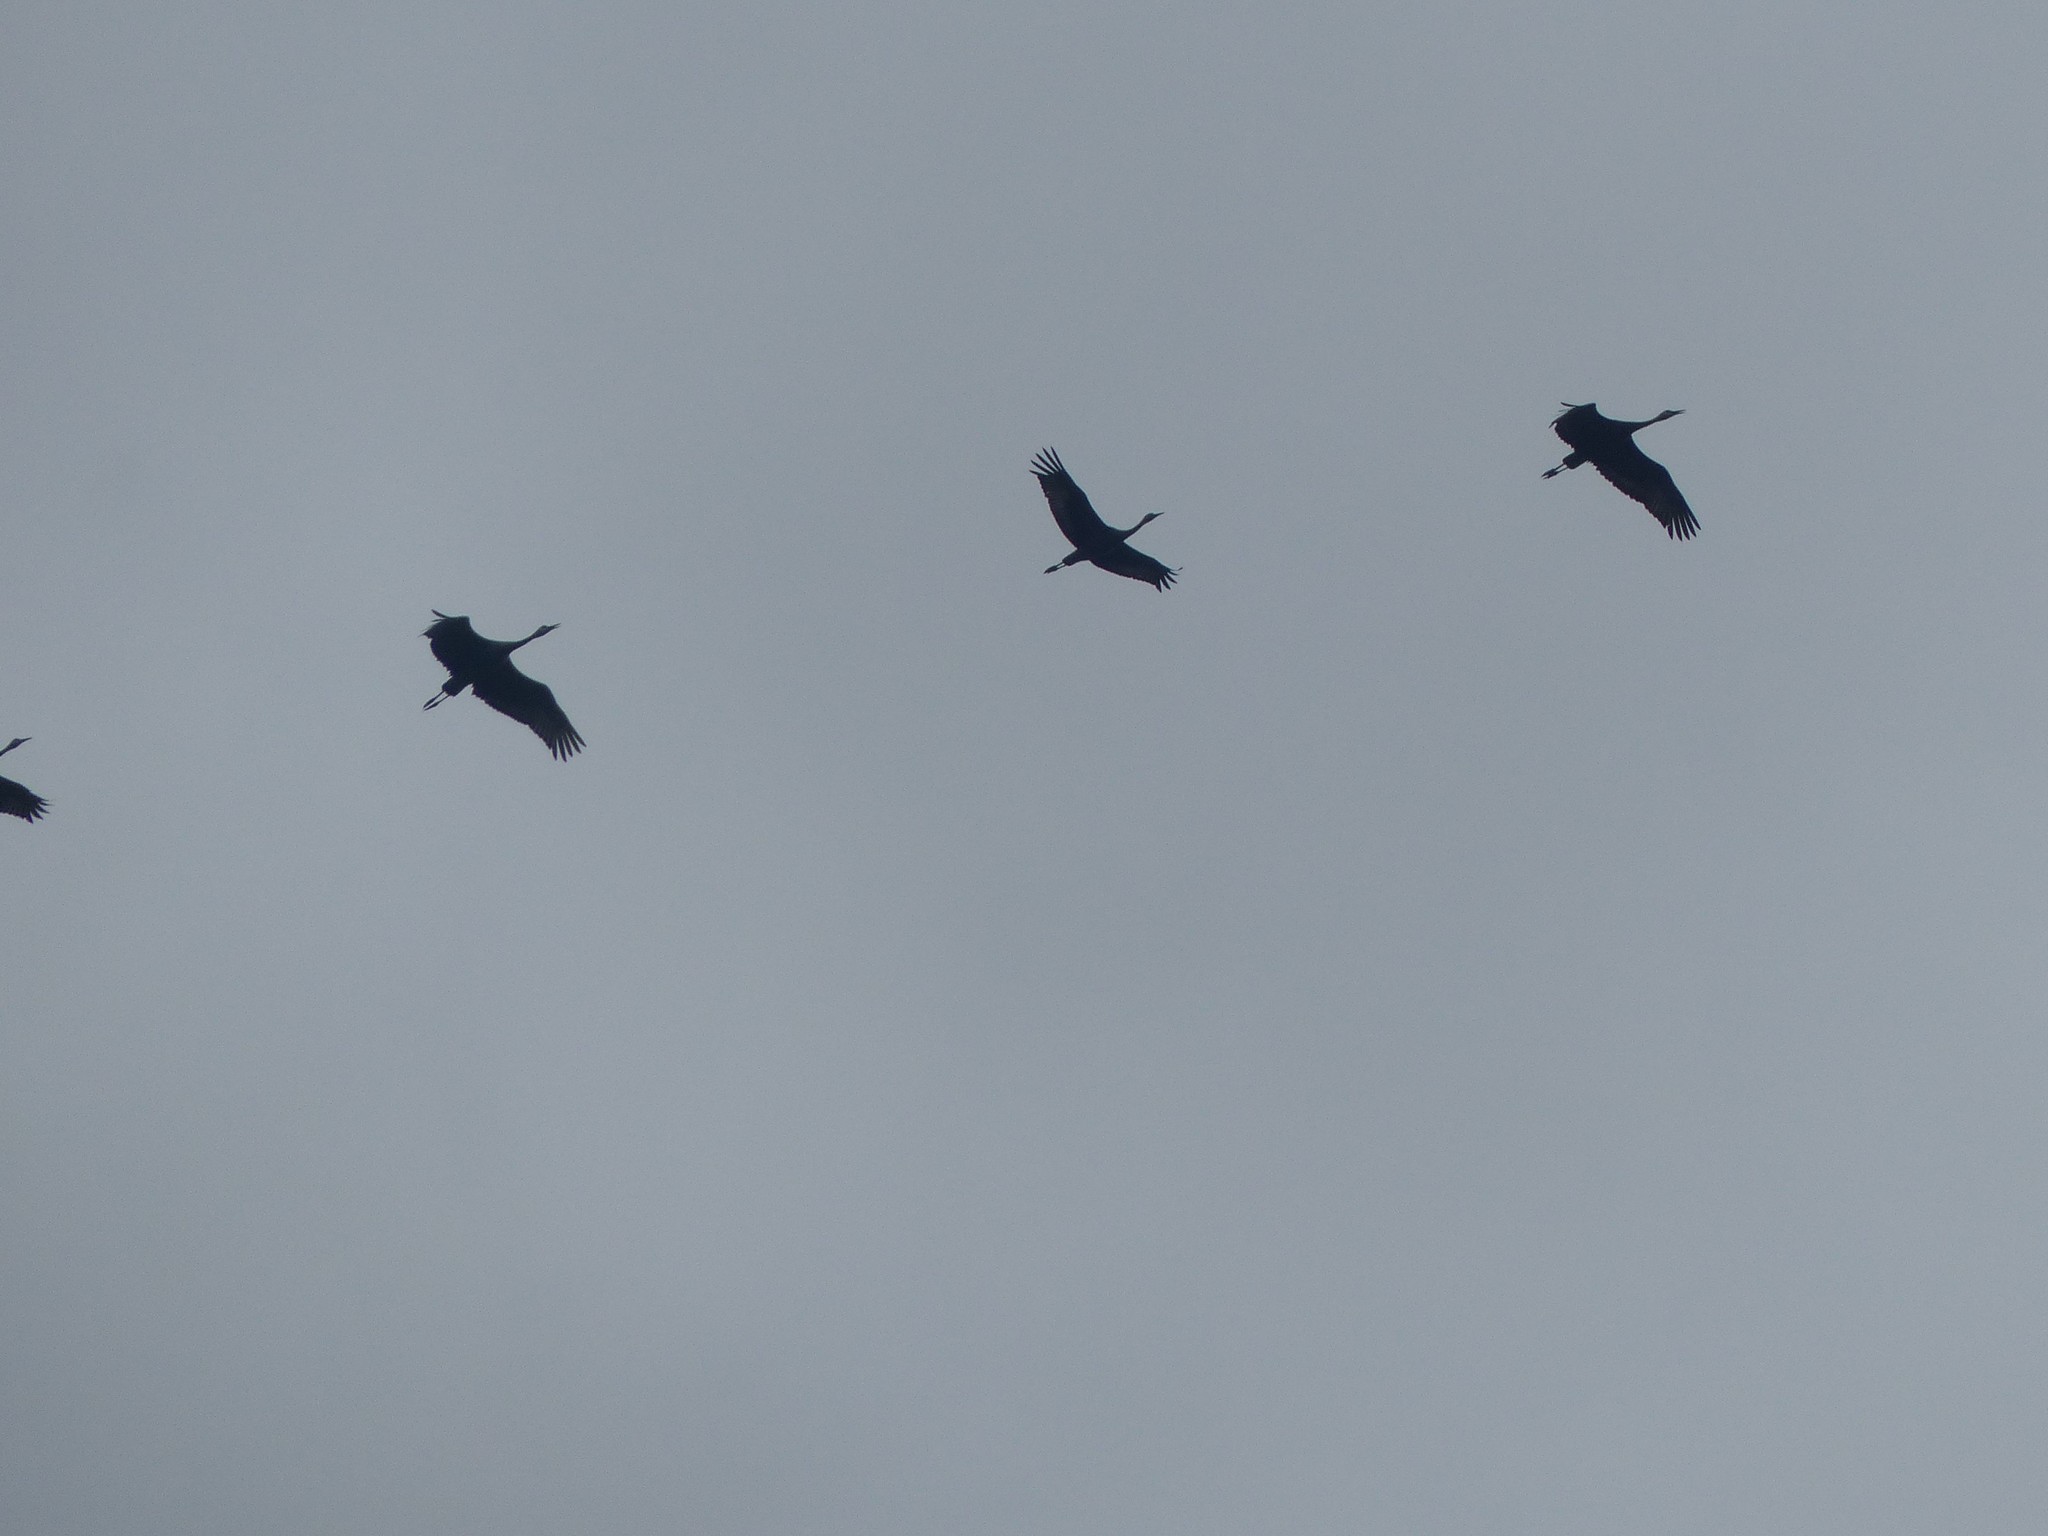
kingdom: Animalia
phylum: Chordata
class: Aves
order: Gruiformes
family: Gruidae
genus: Grus
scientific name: Grus canadensis
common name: Sandhill crane
